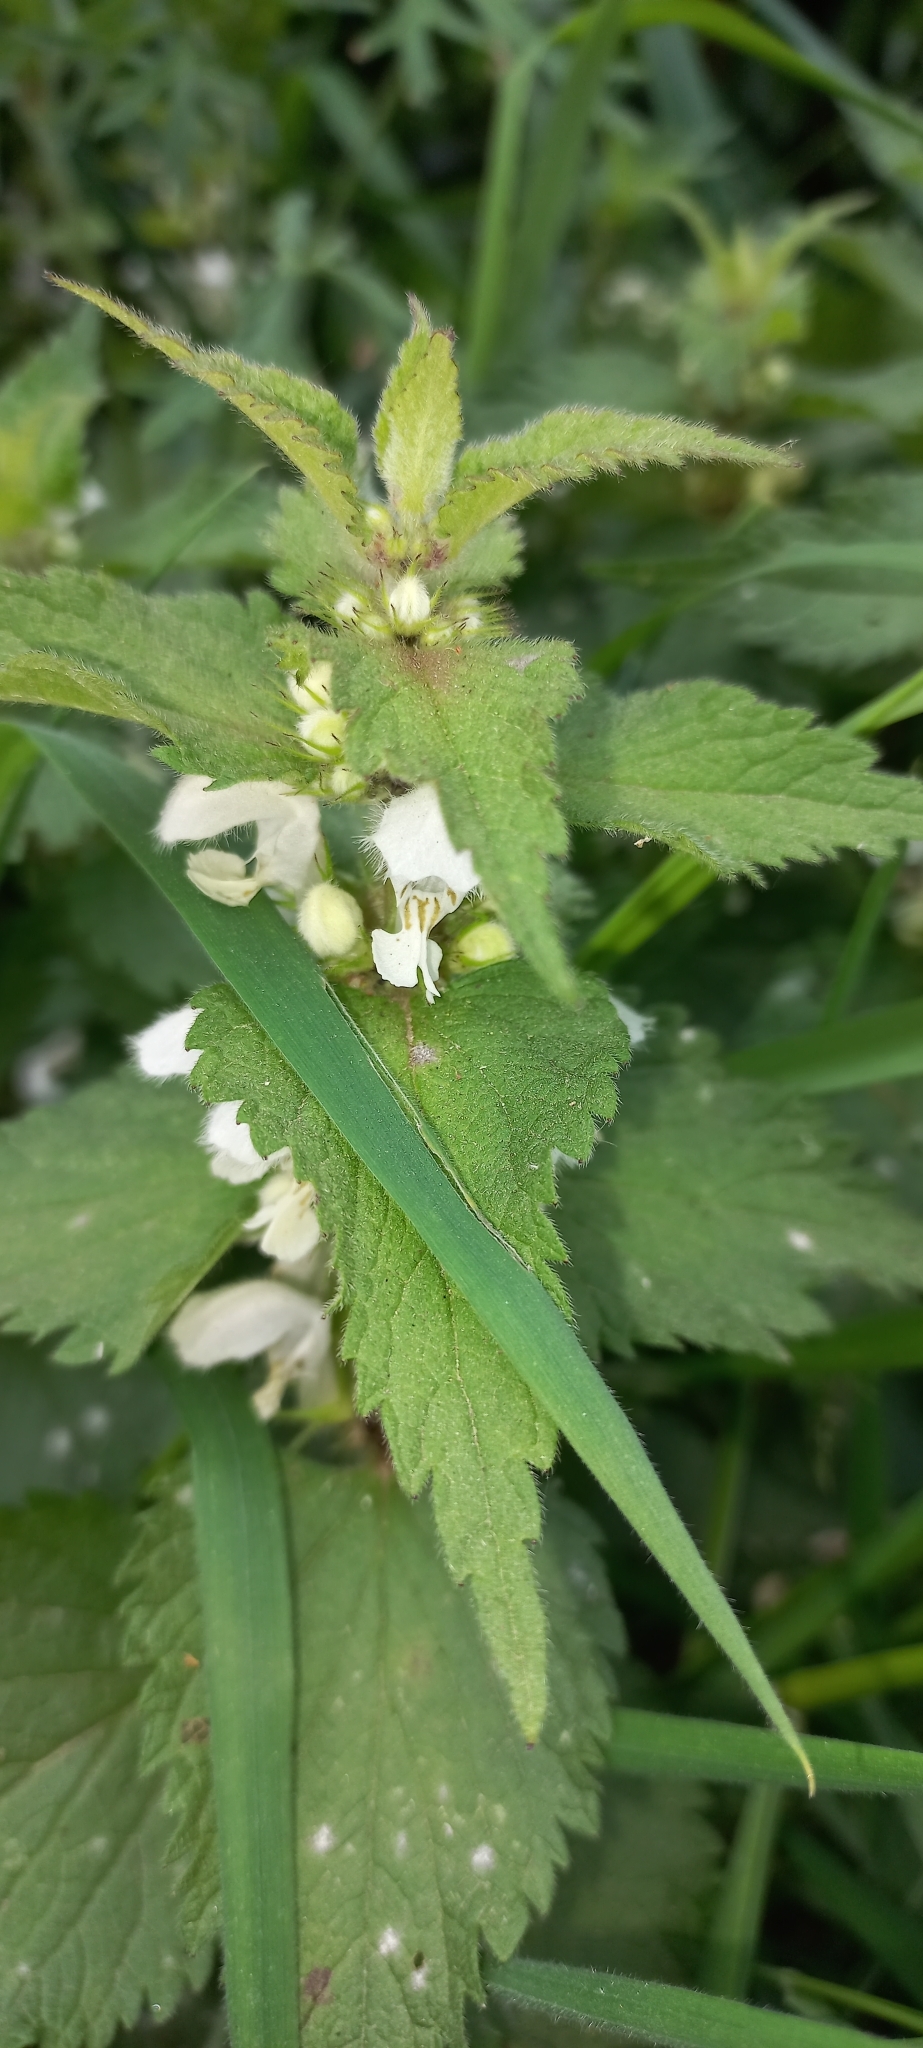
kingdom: Plantae
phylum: Tracheophyta
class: Magnoliopsida
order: Lamiales
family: Lamiaceae
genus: Lamium
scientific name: Lamium album
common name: White dead-nettle
